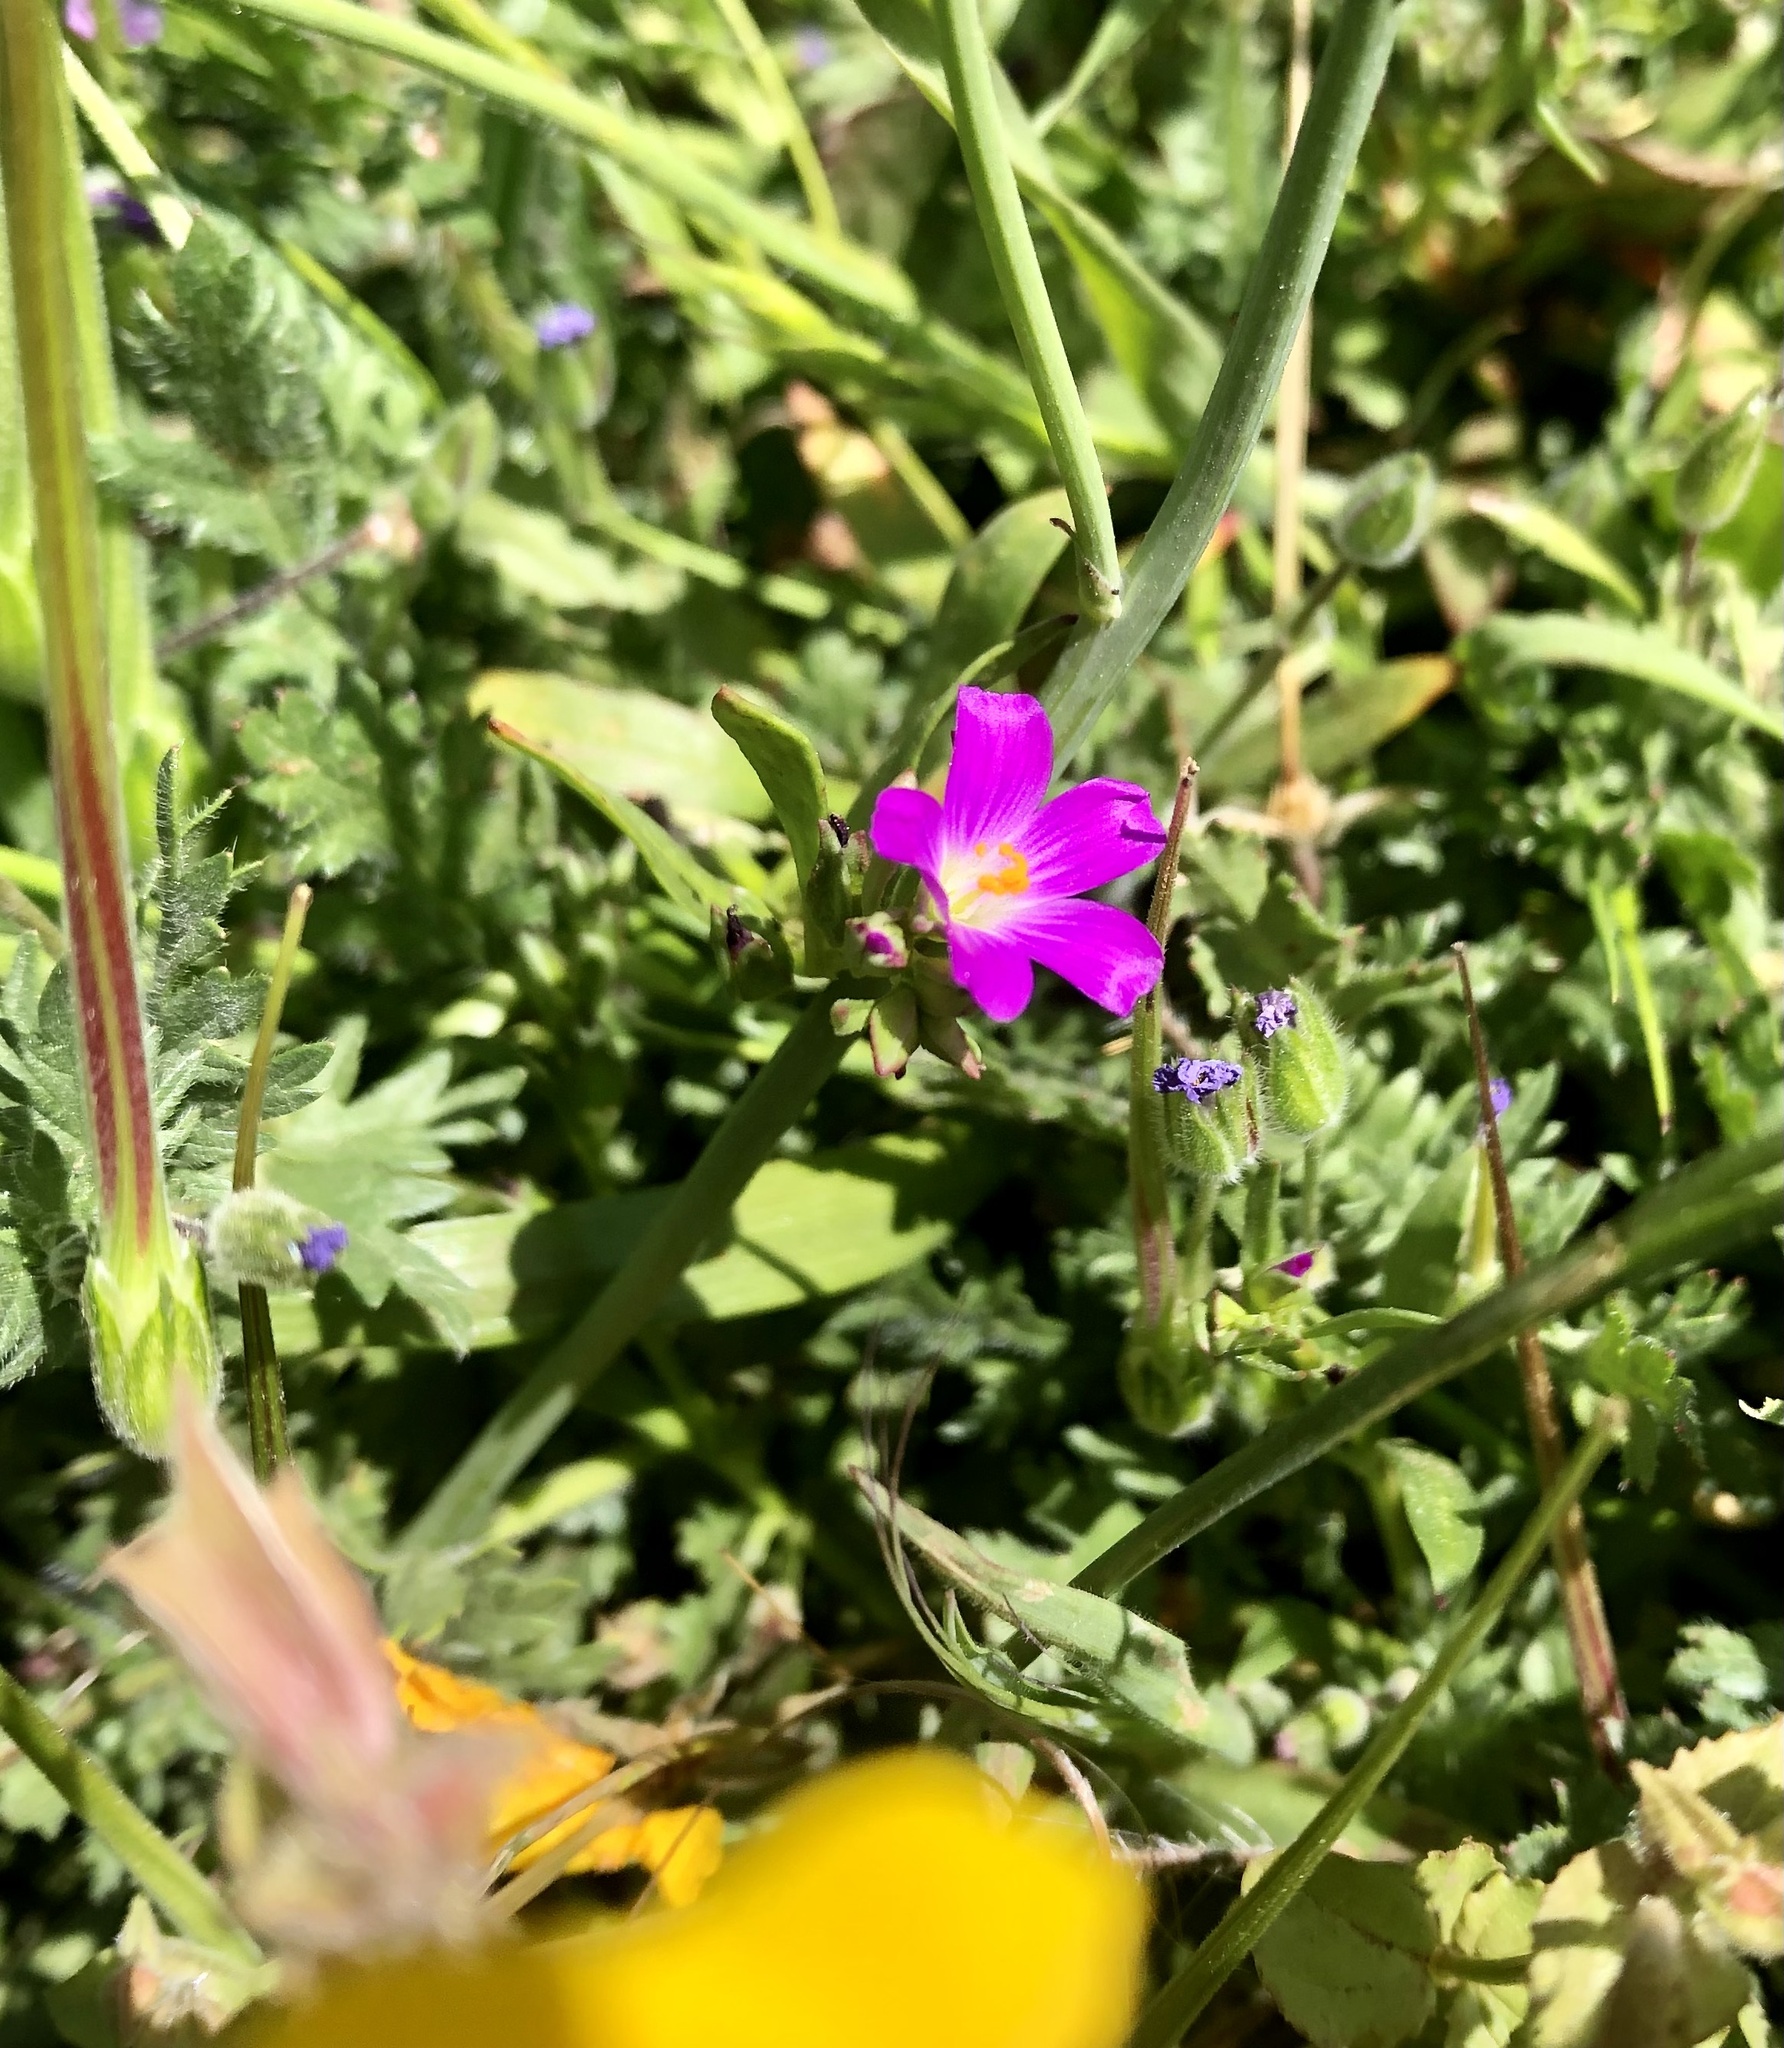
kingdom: Plantae
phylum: Tracheophyta
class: Magnoliopsida
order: Caryophyllales
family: Montiaceae
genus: Calandrinia
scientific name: Calandrinia menziesii
